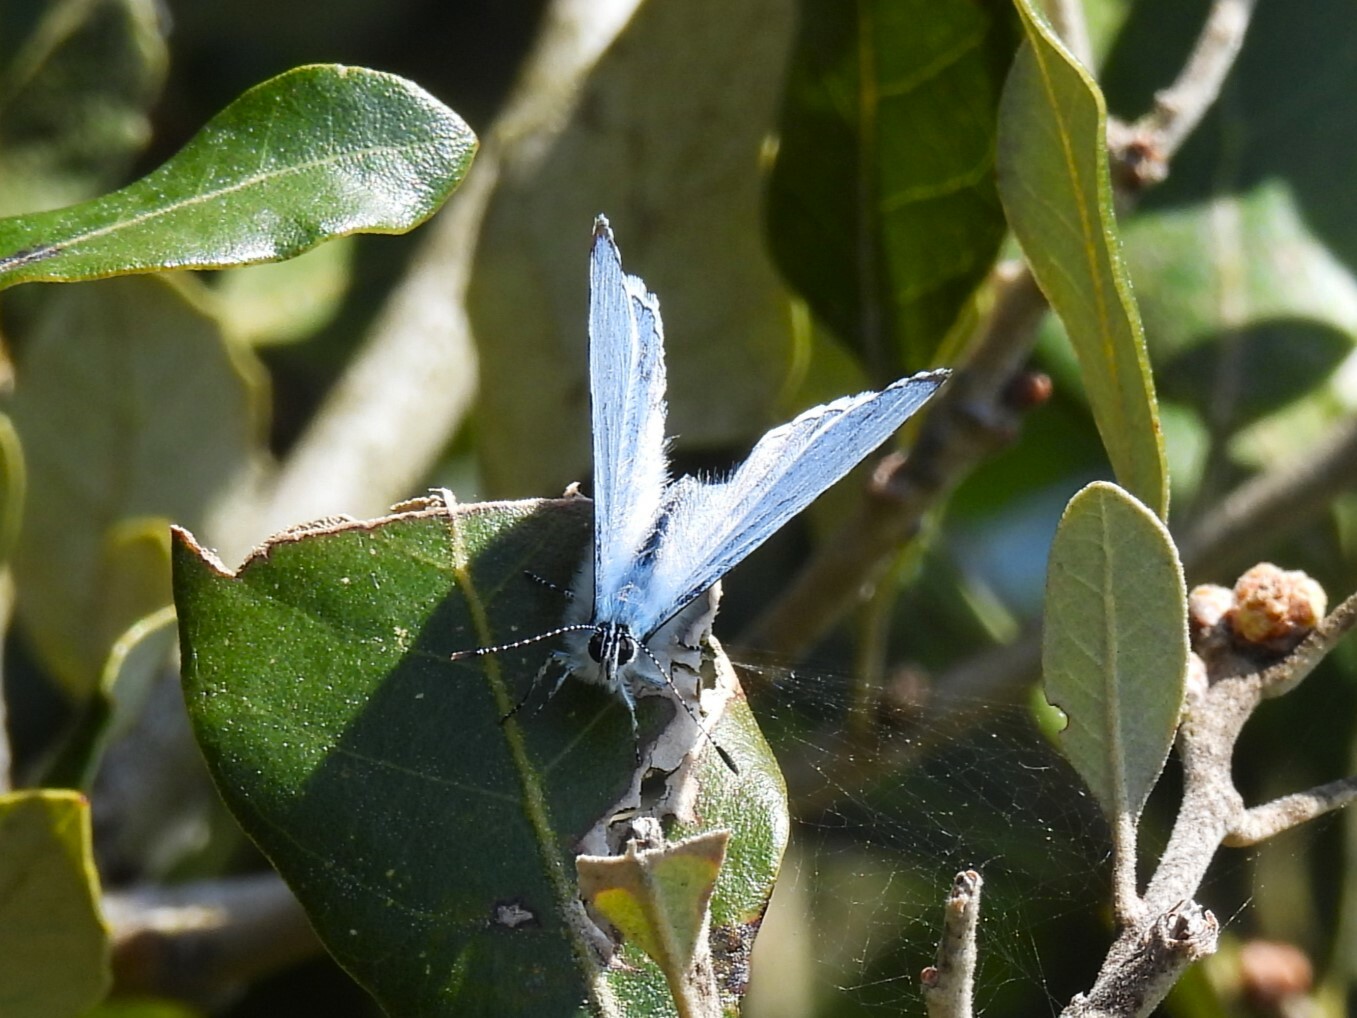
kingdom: Animalia
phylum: Arthropoda
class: Insecta
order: Lepidoptera
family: Lycaenidae
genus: Celastrina
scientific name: Celastrina argiolus
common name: Holly blue
